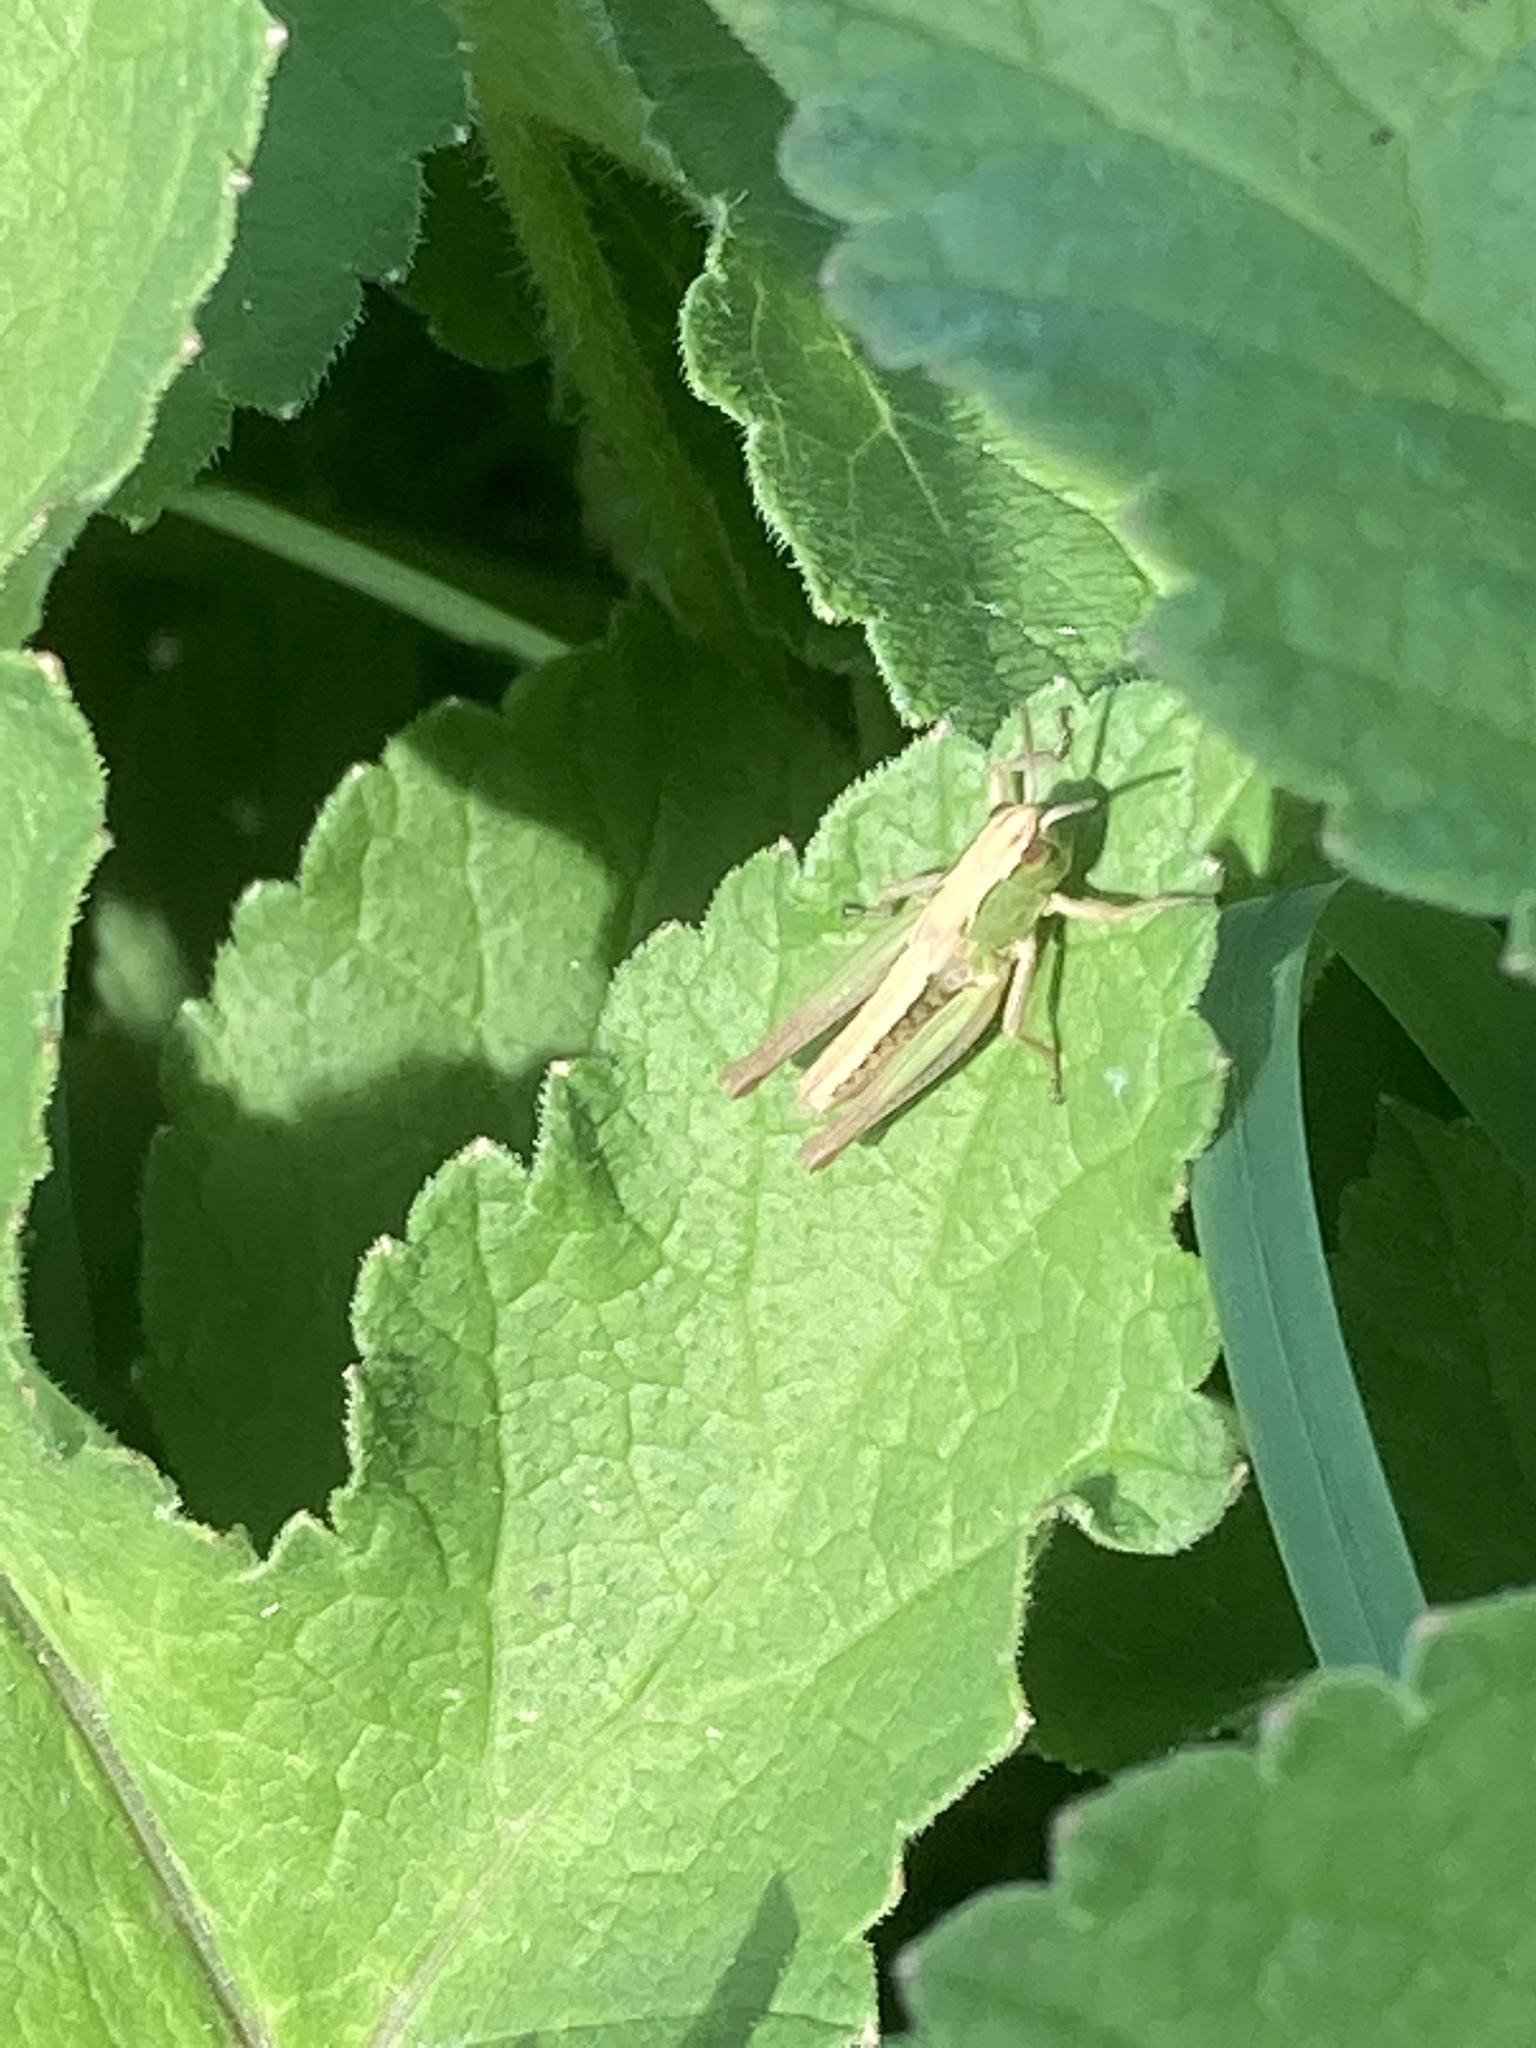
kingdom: Animalia
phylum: Arthropoda
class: Insecta
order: Orthoptera
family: Acrididae
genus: Pseudochorthippus
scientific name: Pseudochorthippus parallelus
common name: Meadow grasshopper
